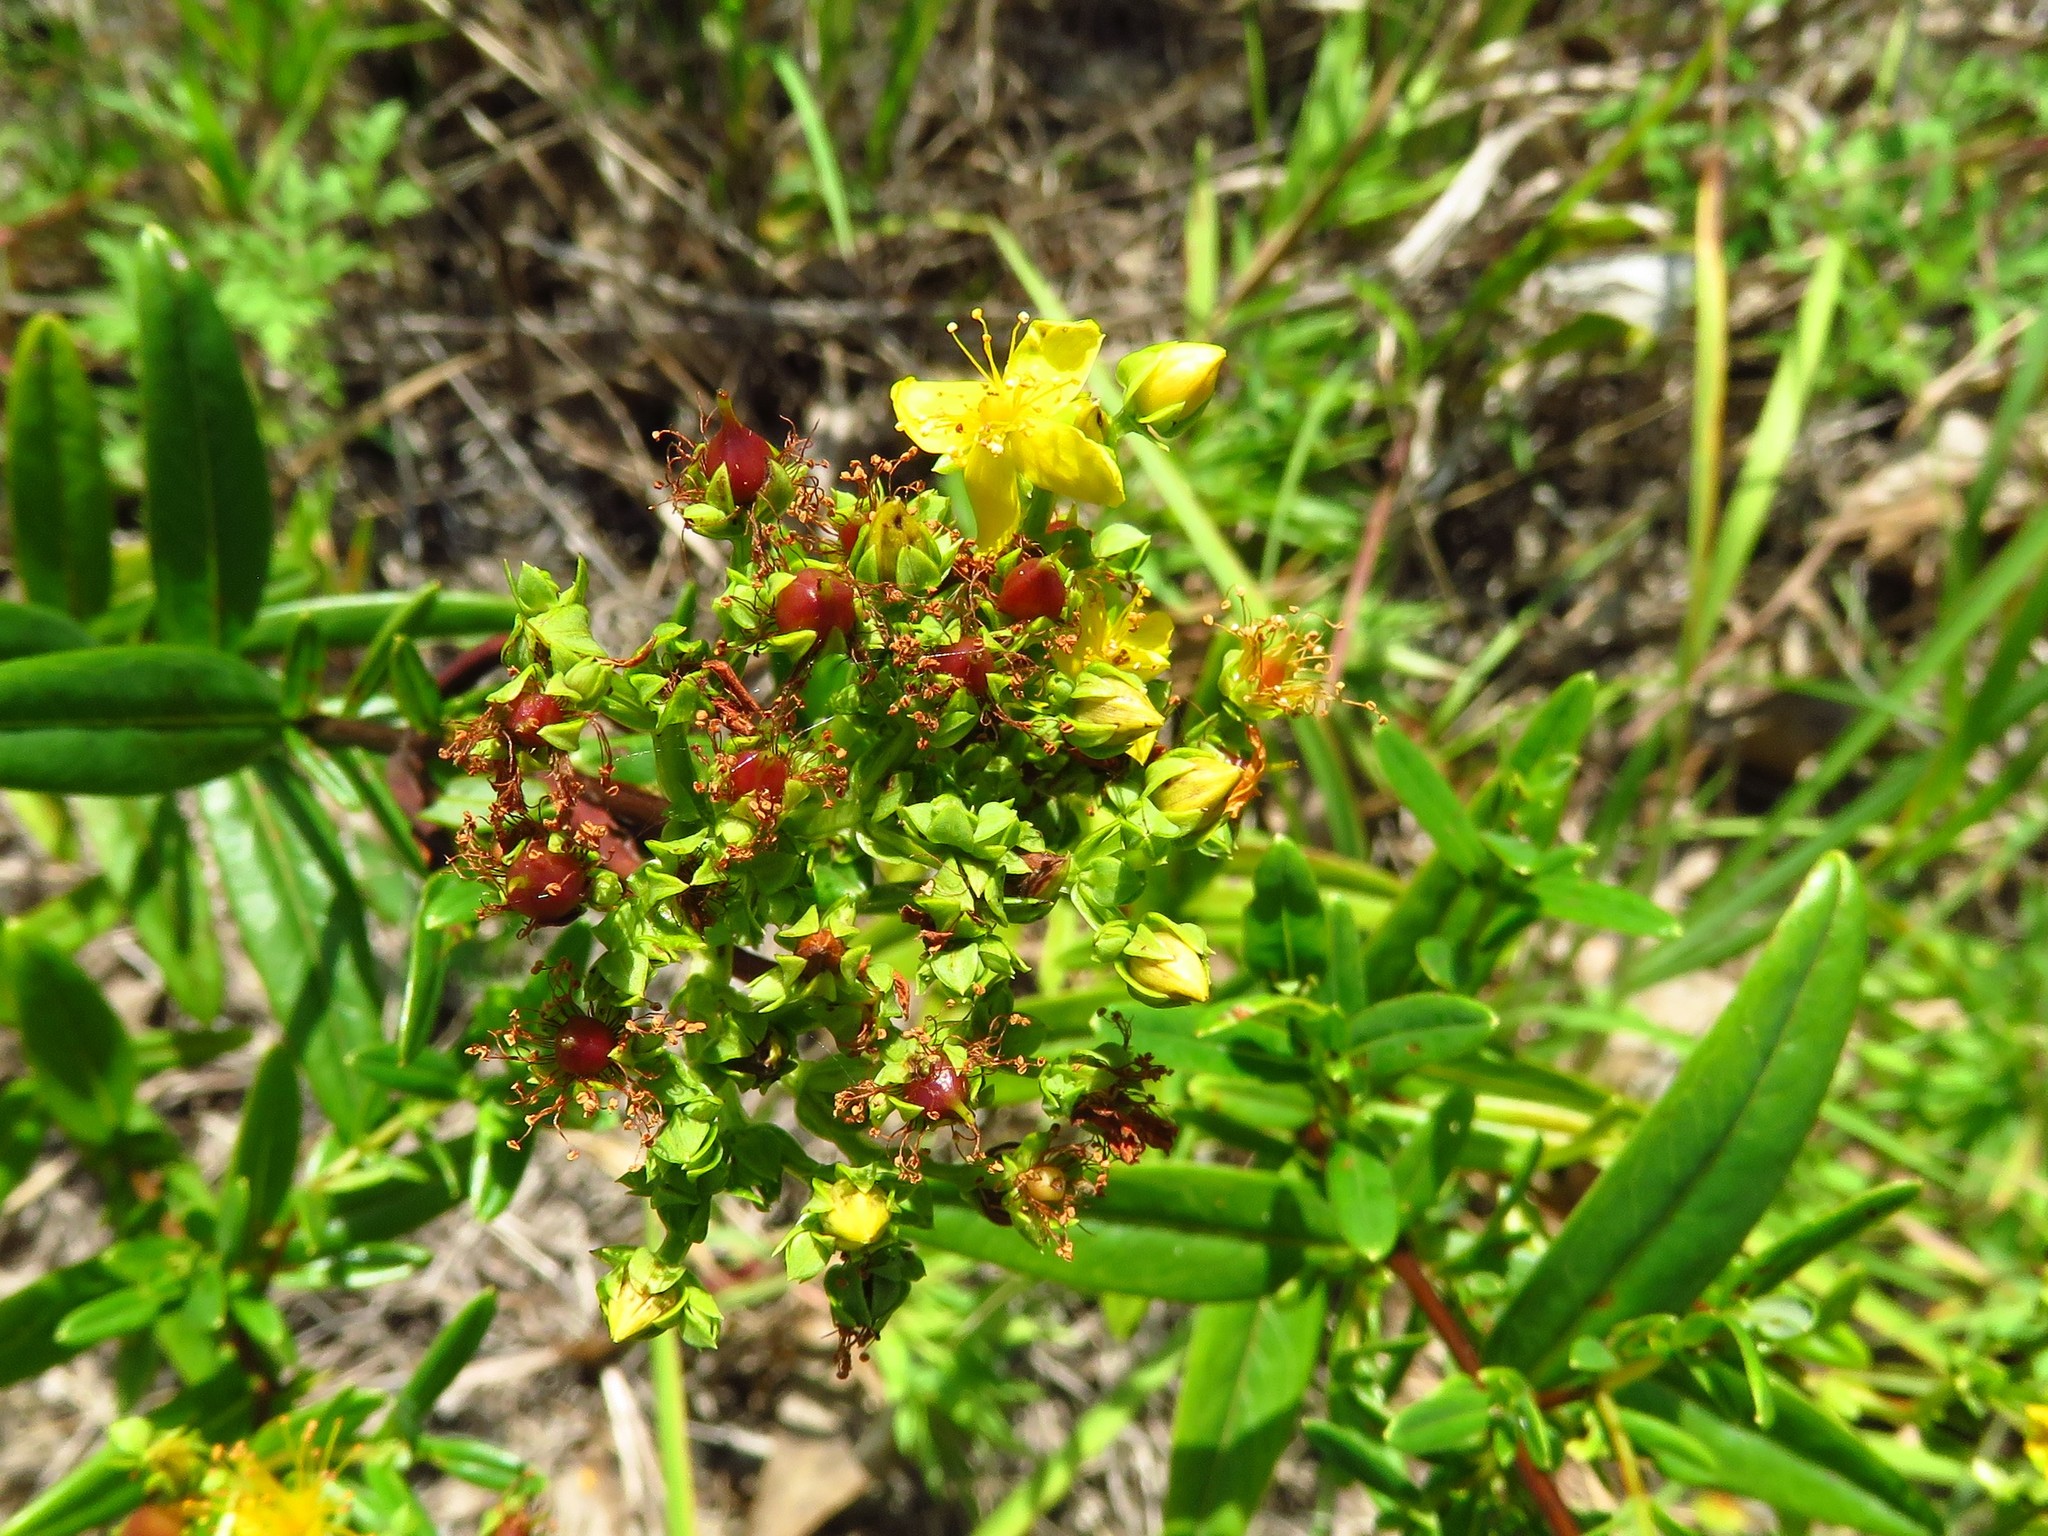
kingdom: Plantae
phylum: Tracheophyta
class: Magnoliopsida
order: Malpighiales
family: Hypericaceae
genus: Hypericum
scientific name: Hypericum perforatum
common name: Common st. johnswort
